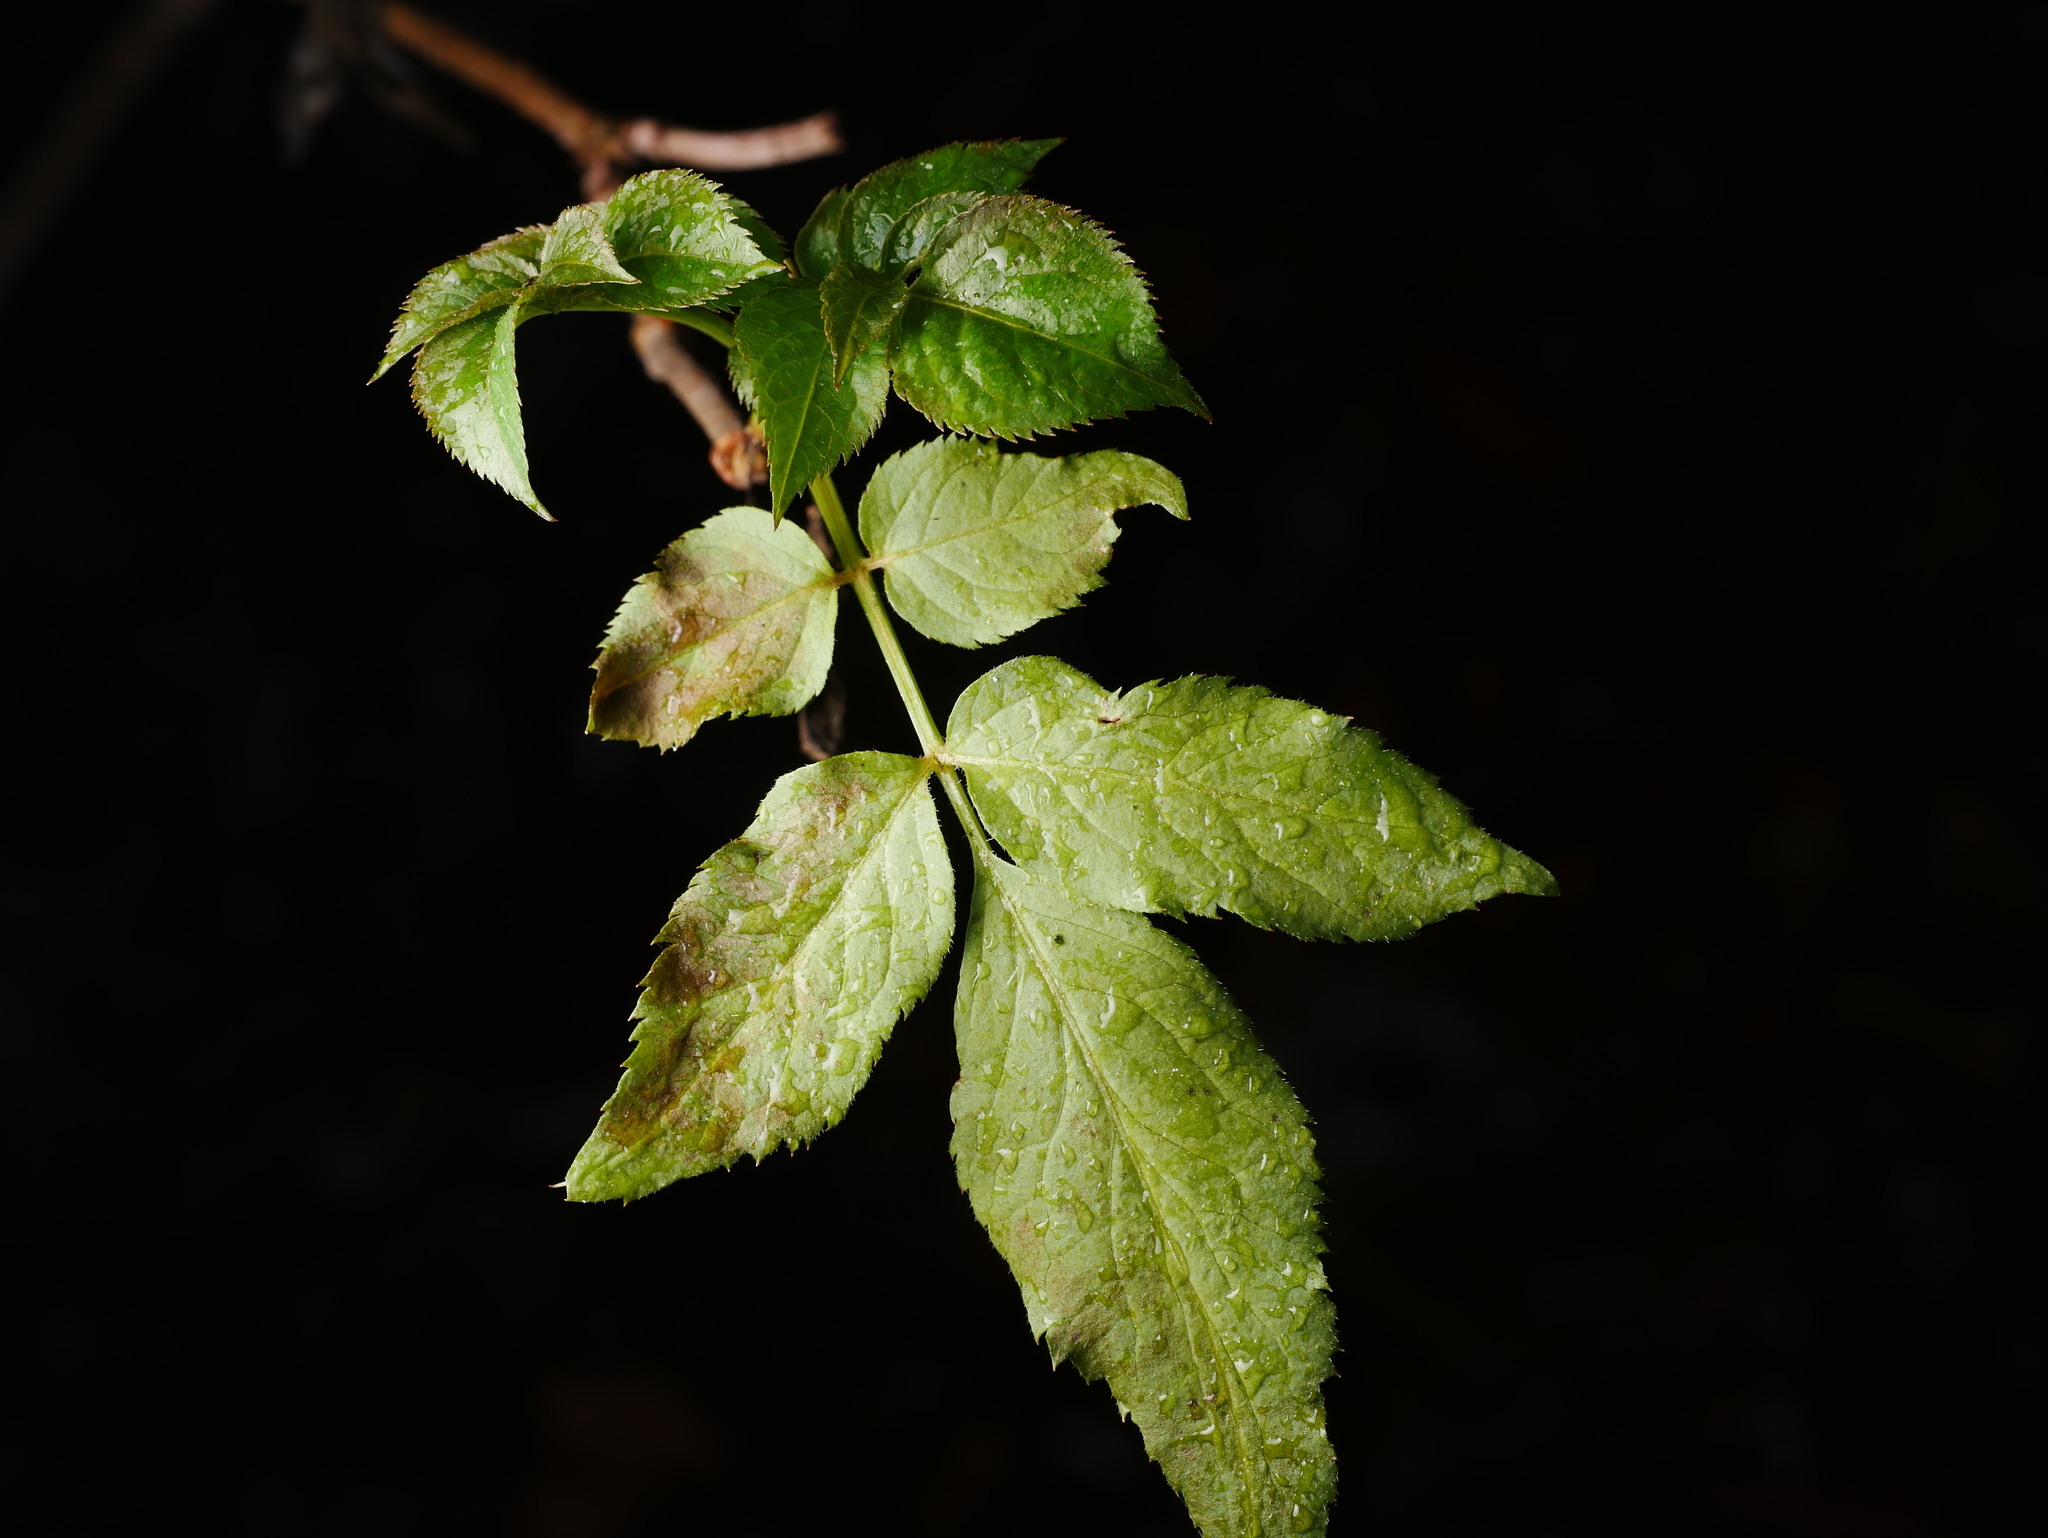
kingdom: Plantae
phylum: Tracheophyta
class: Magnoliopsida
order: Dipsacales
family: Viburnaceae
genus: Sambucus
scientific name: Sambucus nigra
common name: Elder
